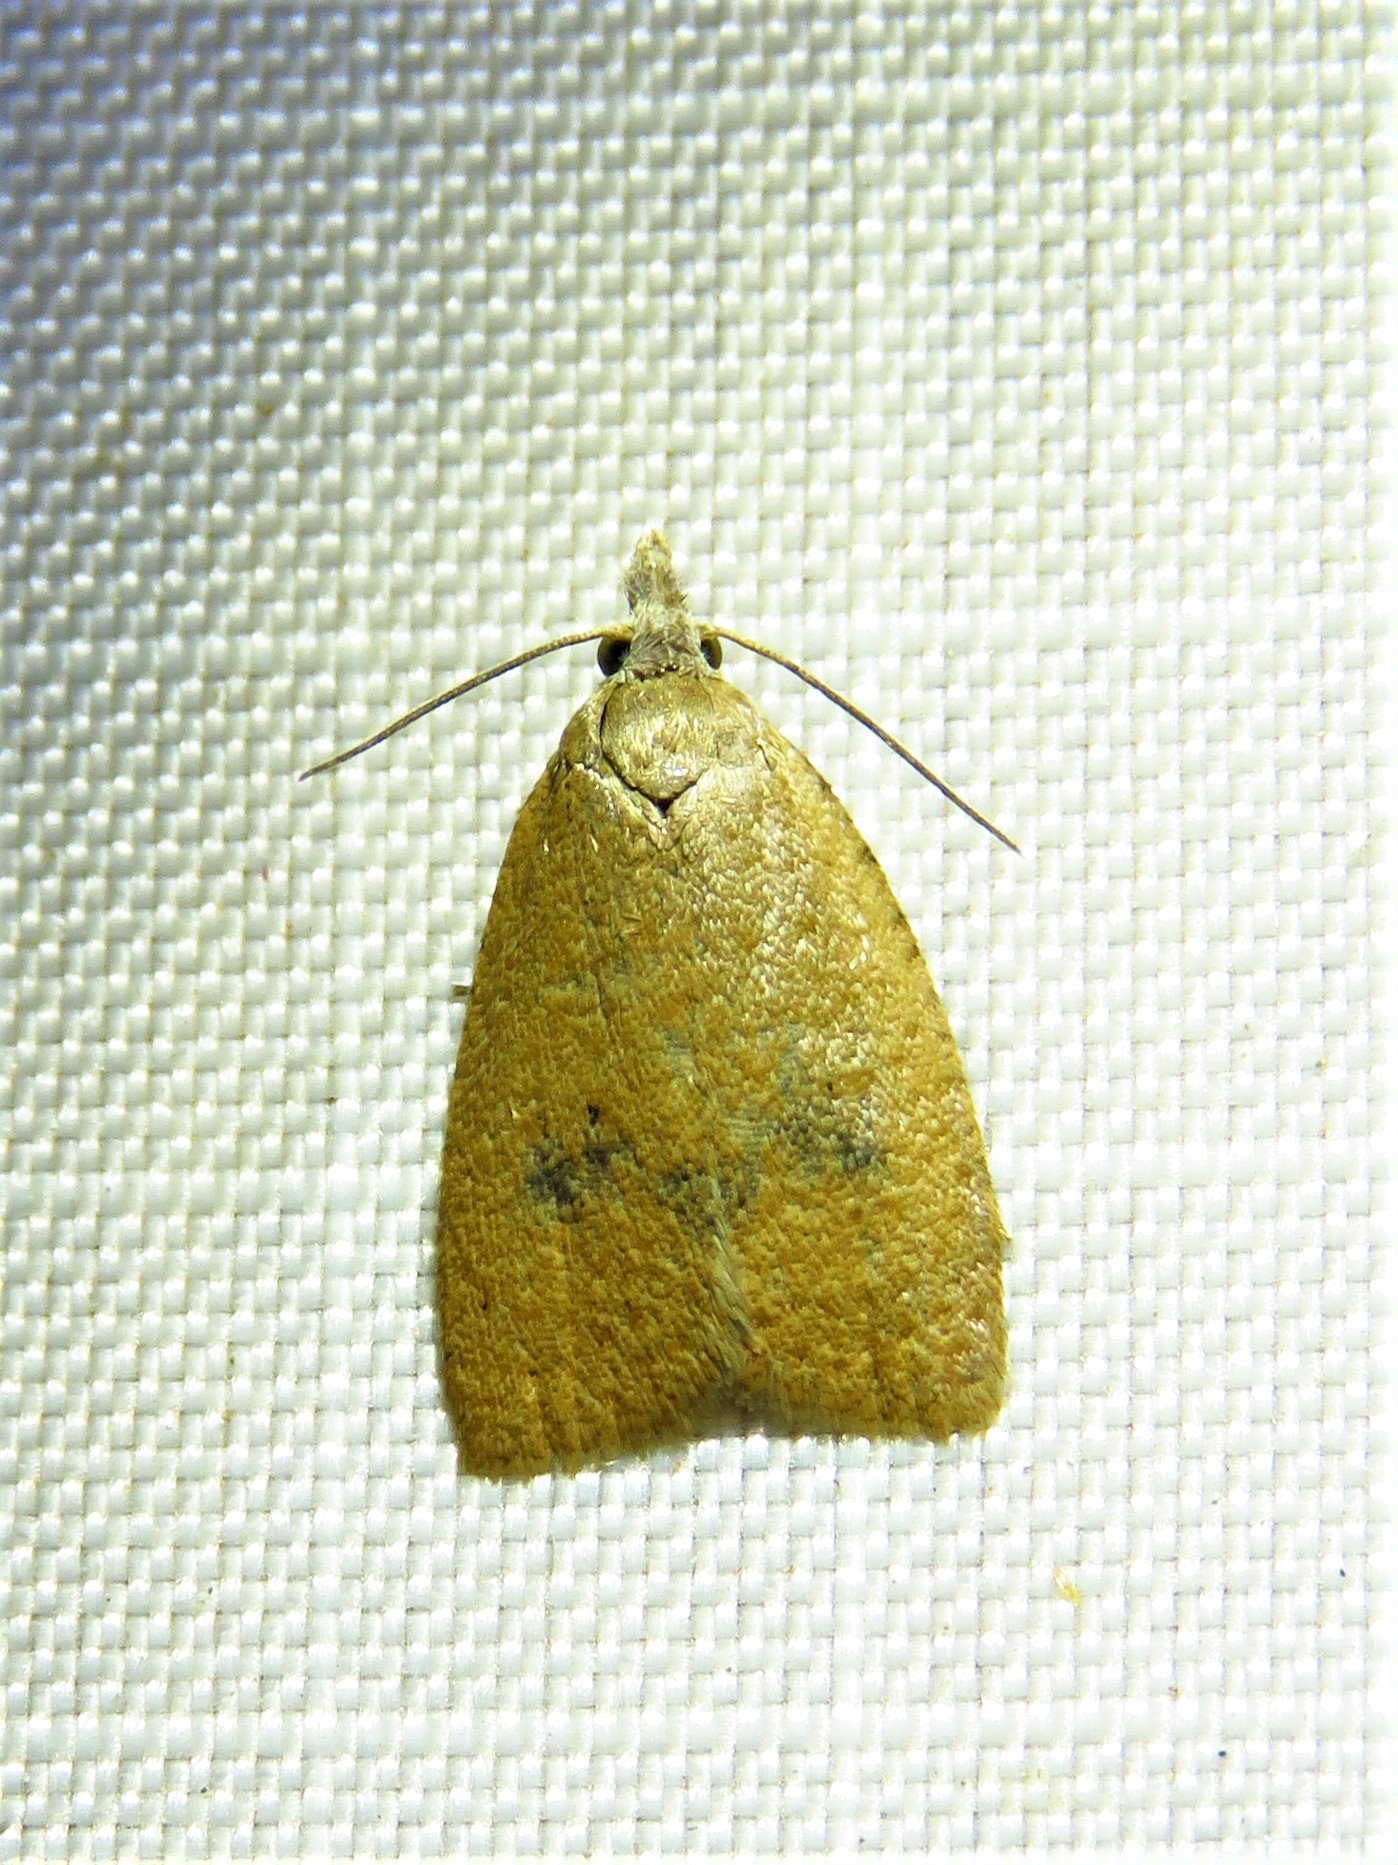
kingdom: Animalia
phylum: Arthropoda
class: Insecta
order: Lepidoptera
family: Tortricidae
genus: Sparganothoides
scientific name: Sparganothoides lentiginosana
